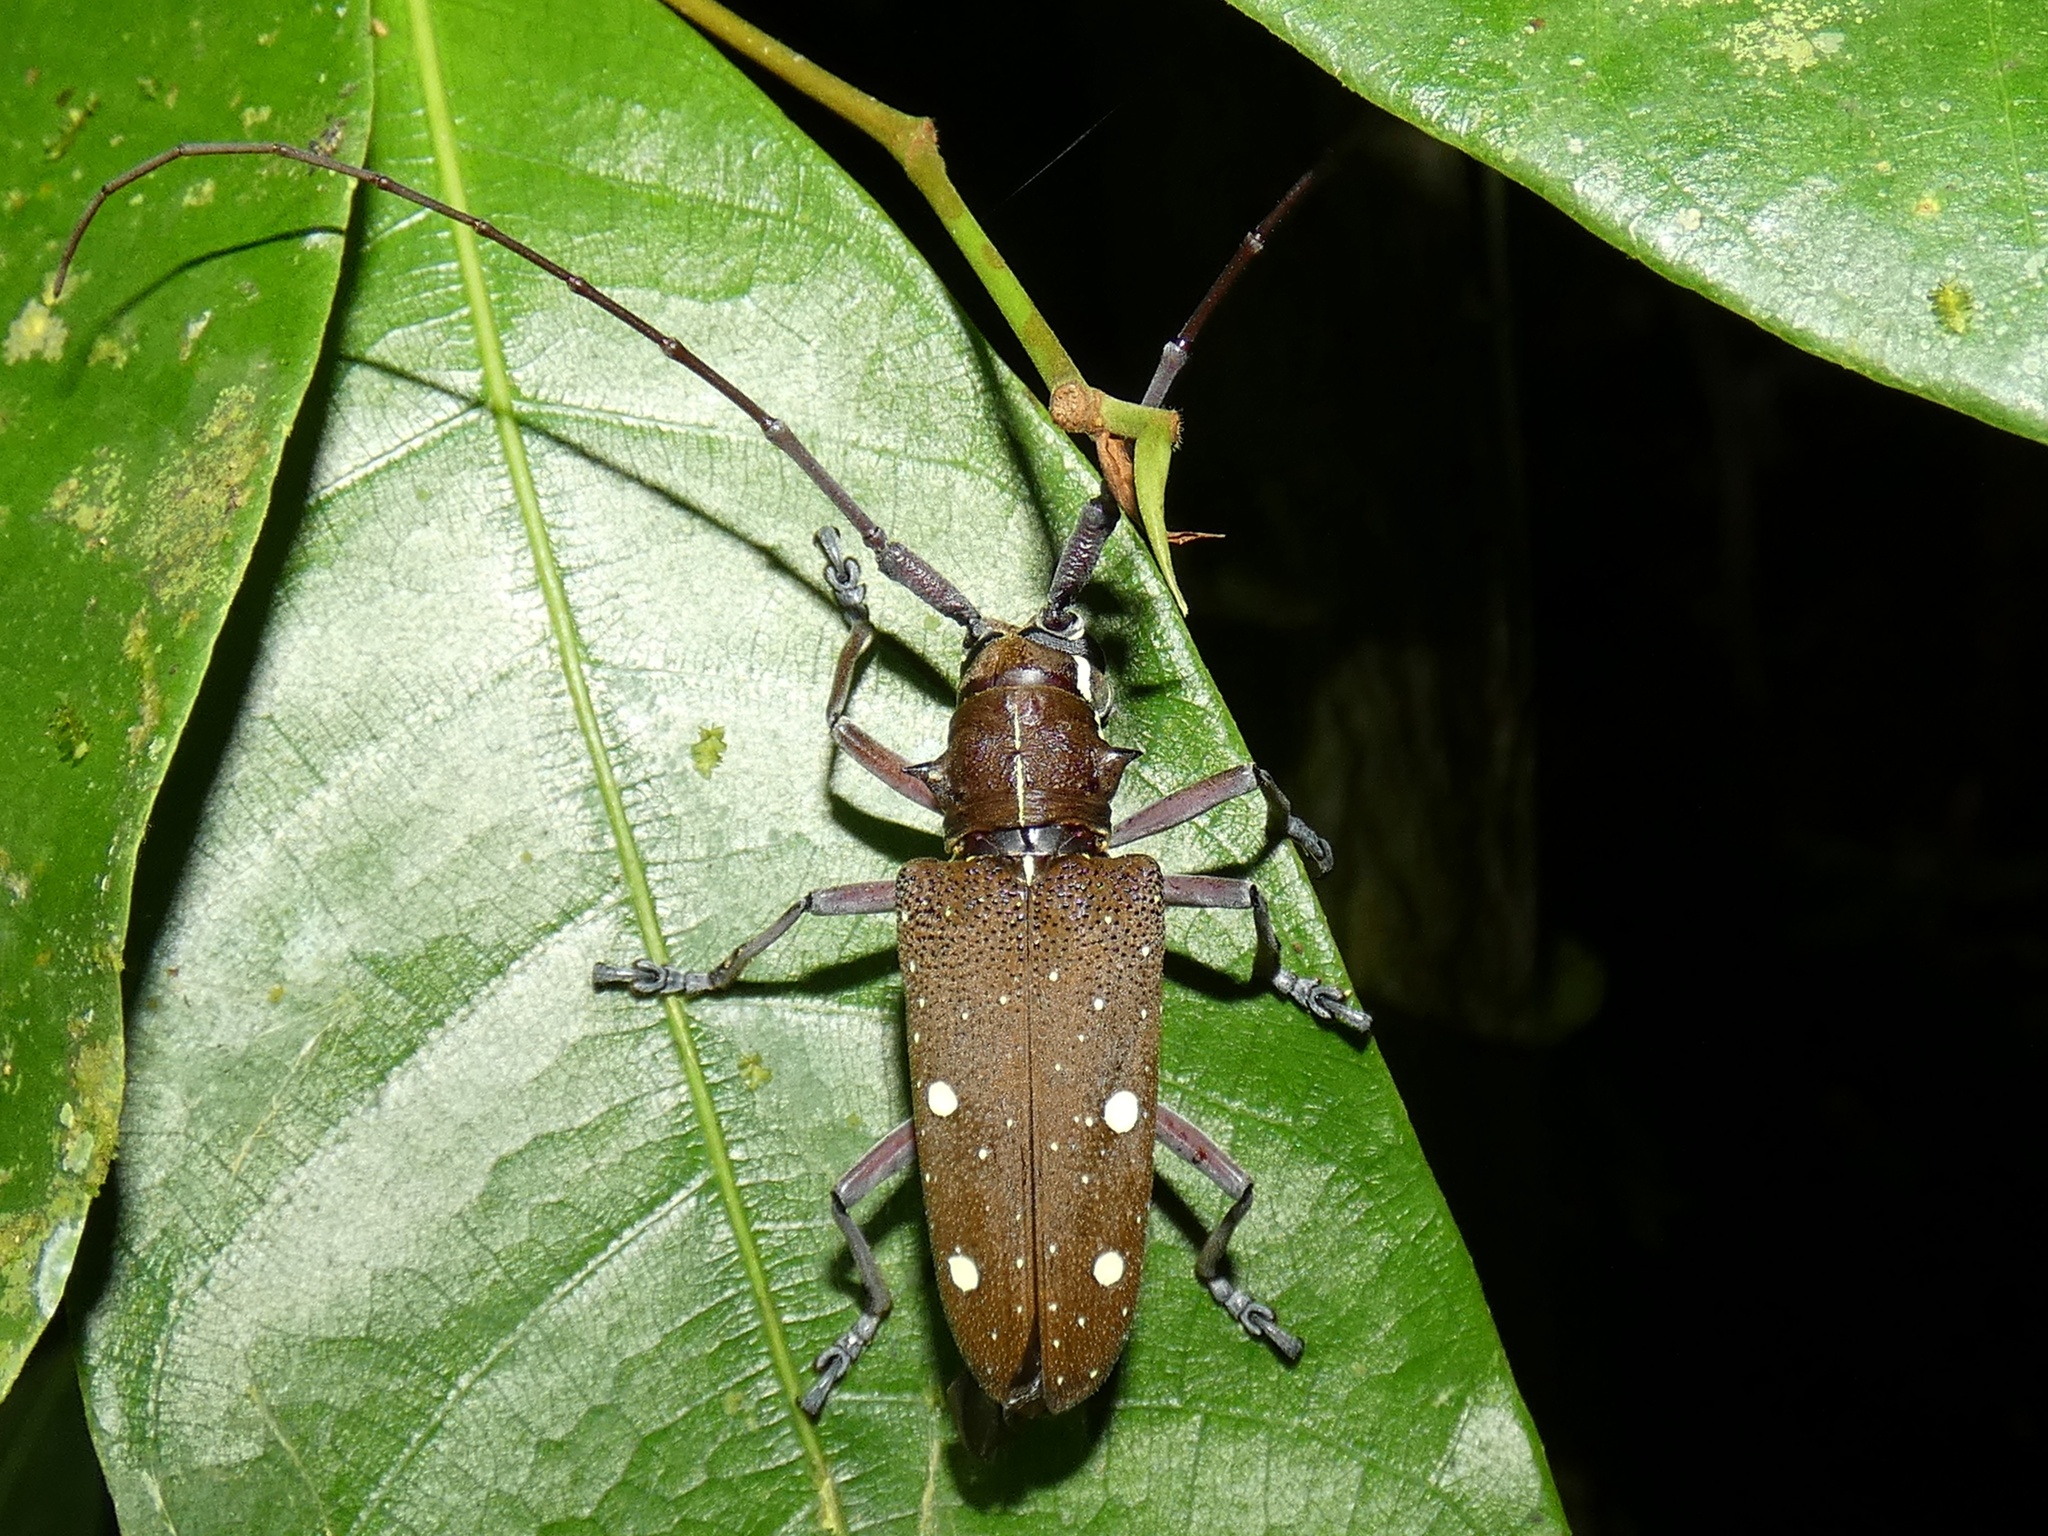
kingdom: Animalia
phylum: Arthropoda
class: Insecta
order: Coleoptera
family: Cerambycidae
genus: Taeniotes
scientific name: Taeniotes xanthostictus
